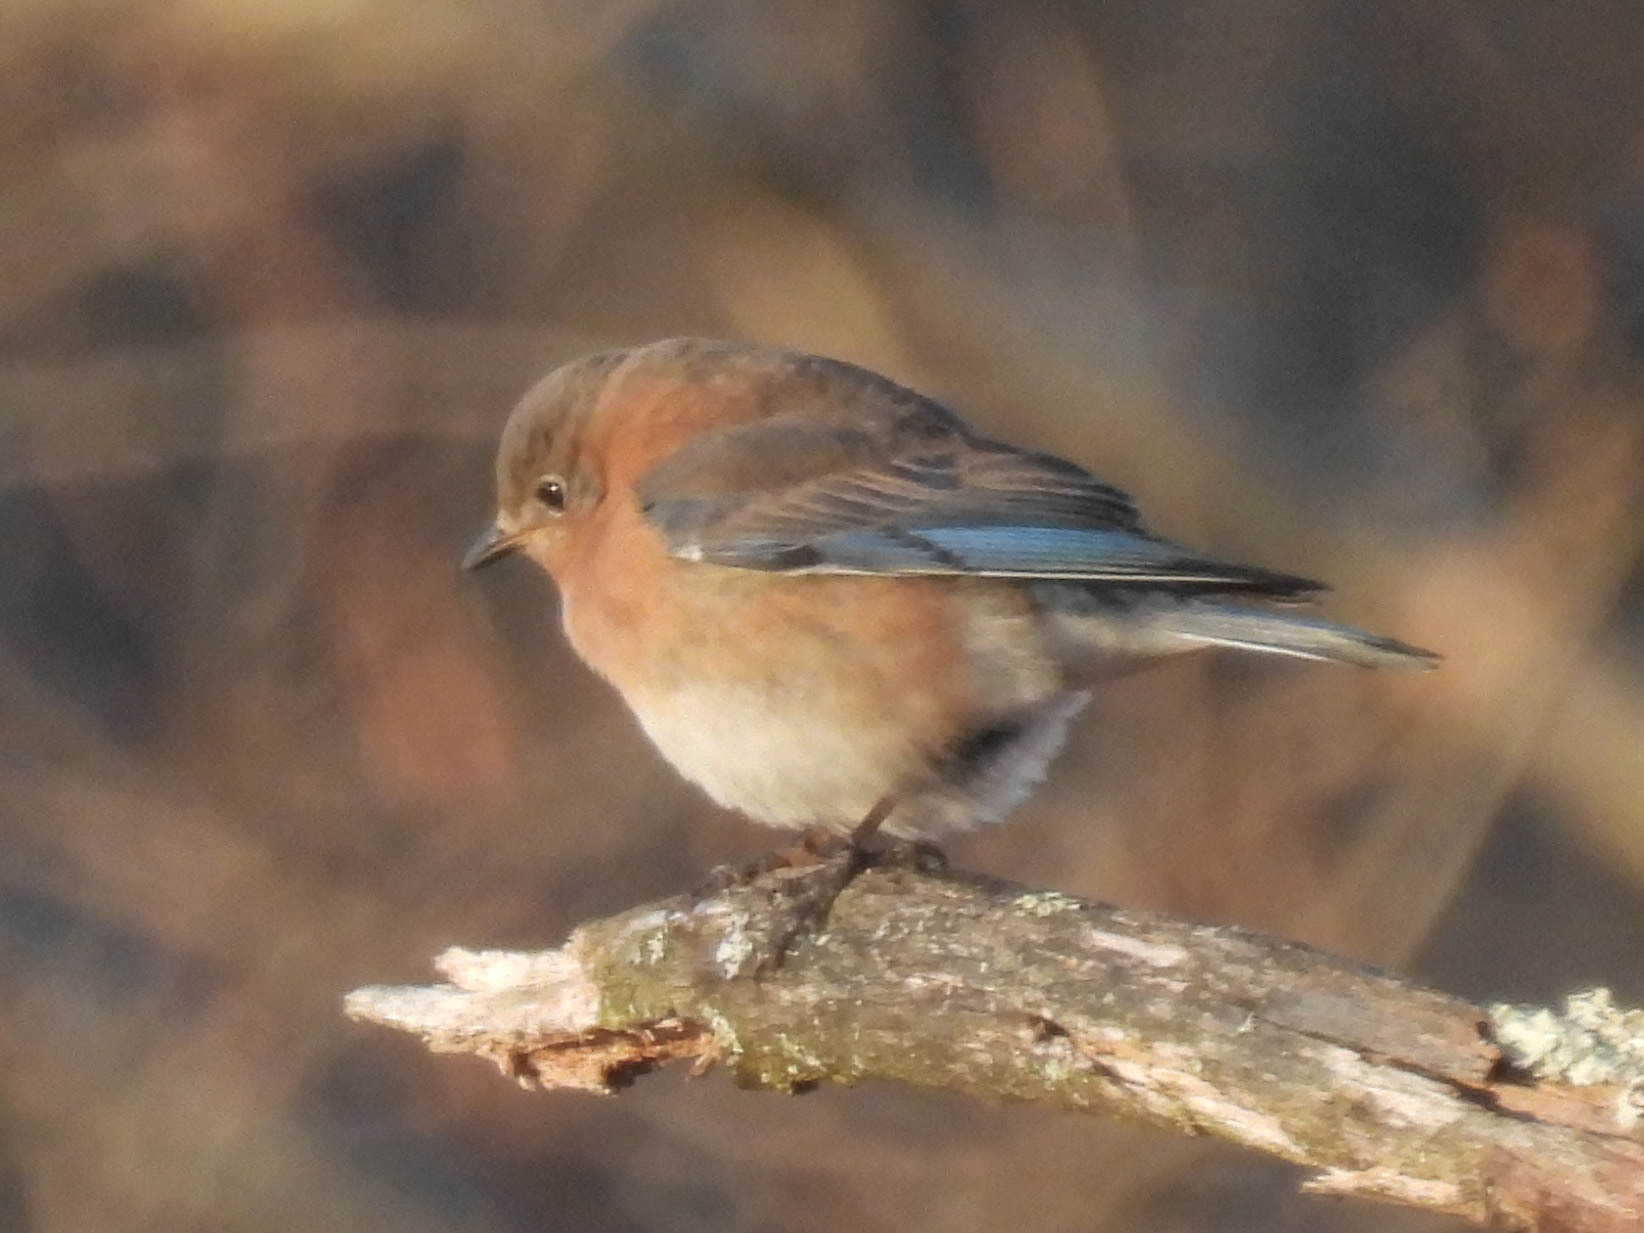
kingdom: Animalia
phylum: Chordata
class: Aves
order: Passeriformes
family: Turdidae
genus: Sialia
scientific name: Sialia sialis
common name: Eastern bluebird
